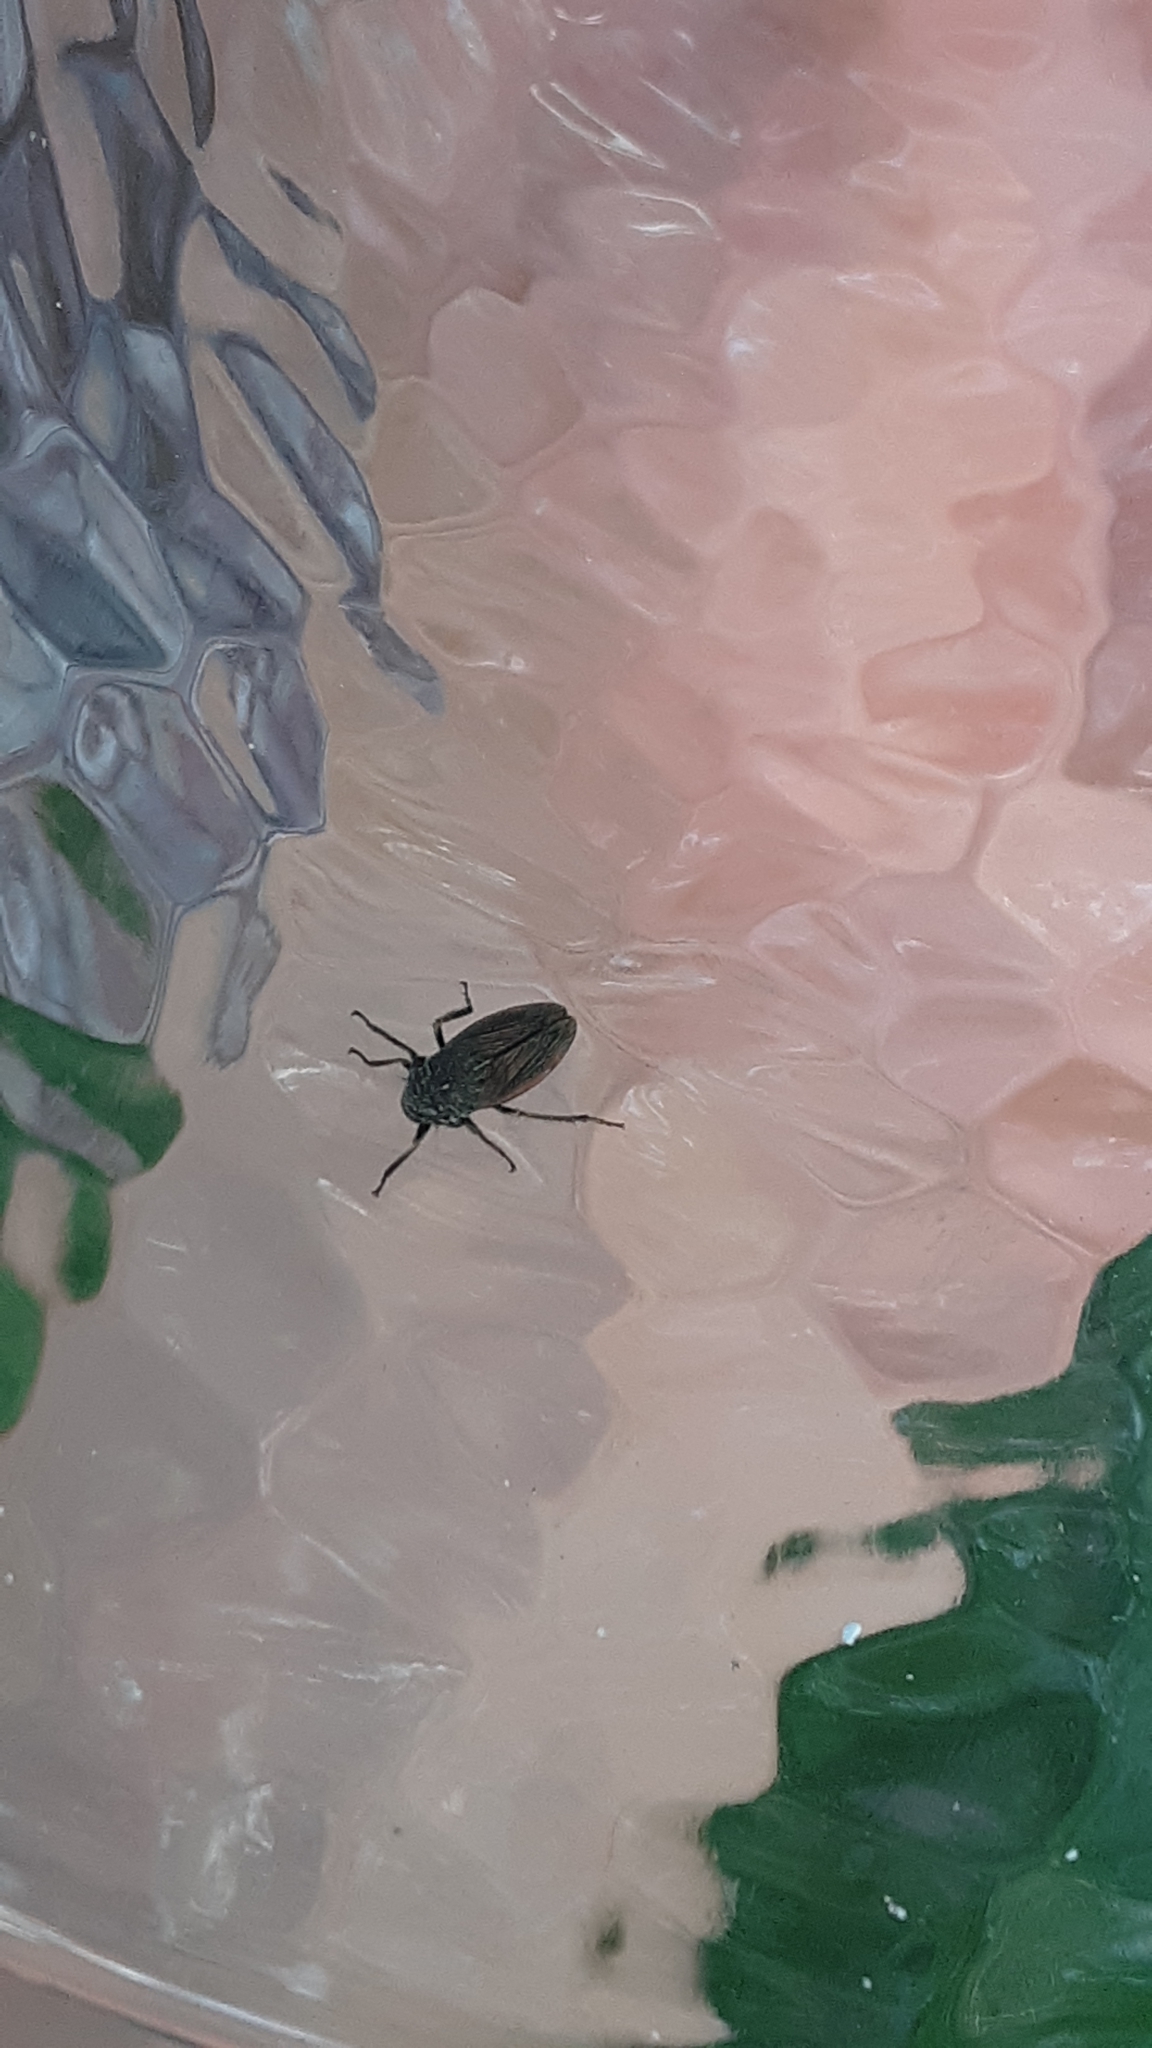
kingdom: Animalia
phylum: Arthropoda
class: Insecta
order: Hemiptera
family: Cicadellidae
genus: Cuerna
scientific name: Cuerna striata
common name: Striped leafhopper
